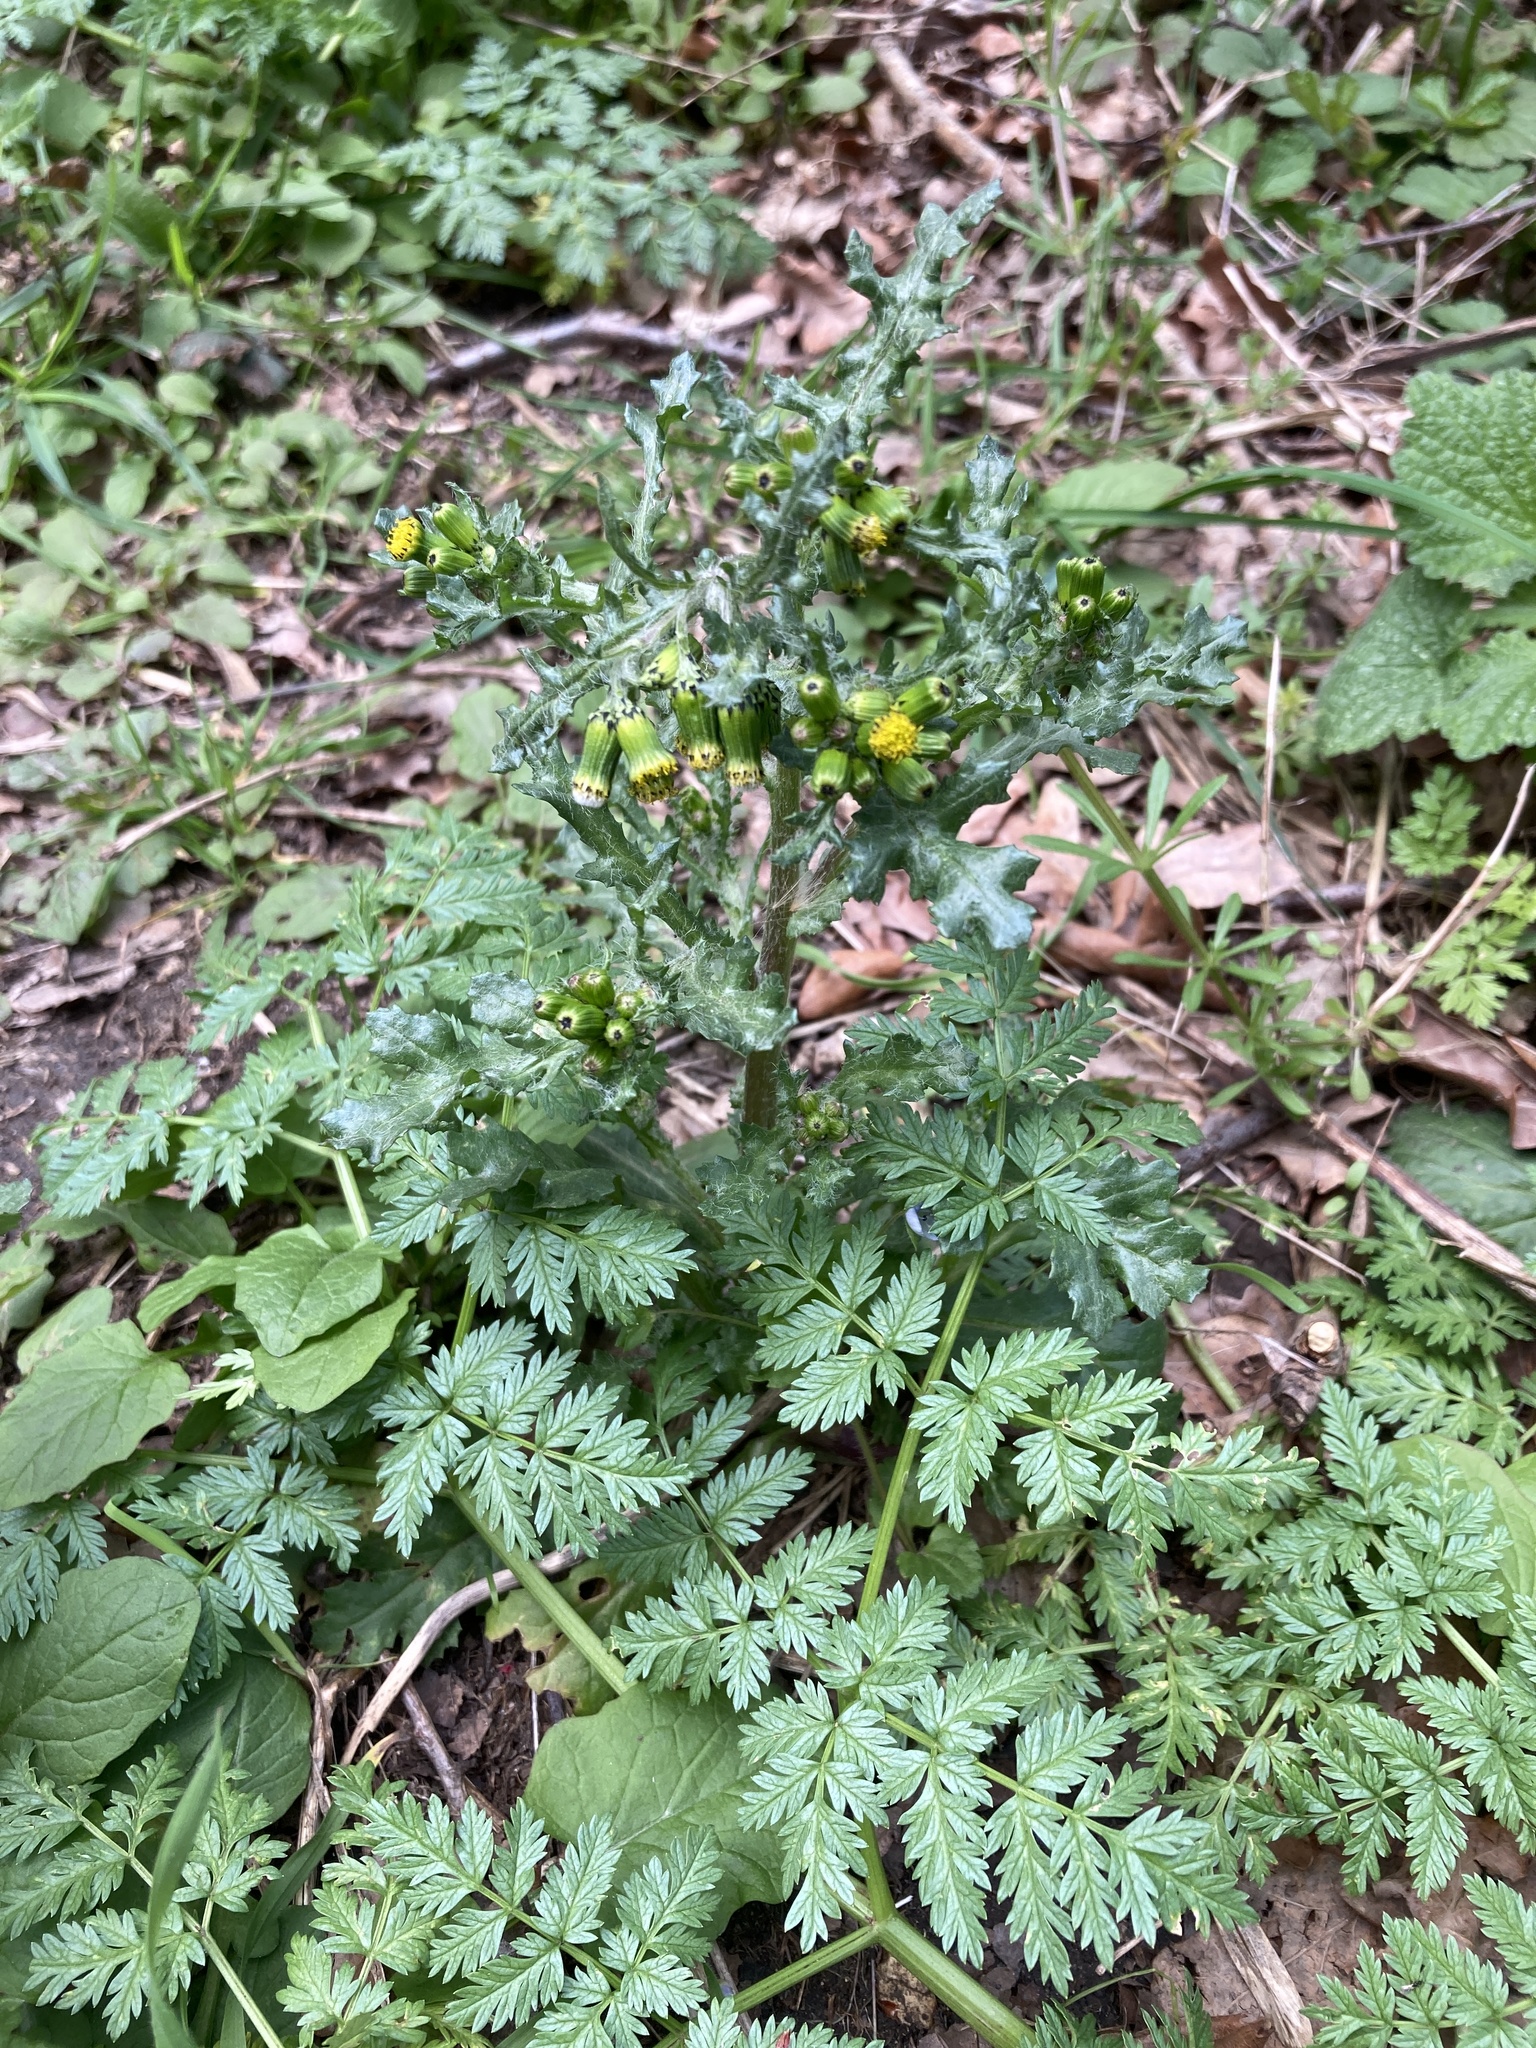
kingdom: Plantae
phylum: Tracheophyta
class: Magnoliopsida
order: Asterales
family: Asteraceae
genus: Senecio
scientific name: Senecio vulgaris
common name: Old-man-in-the-spring
